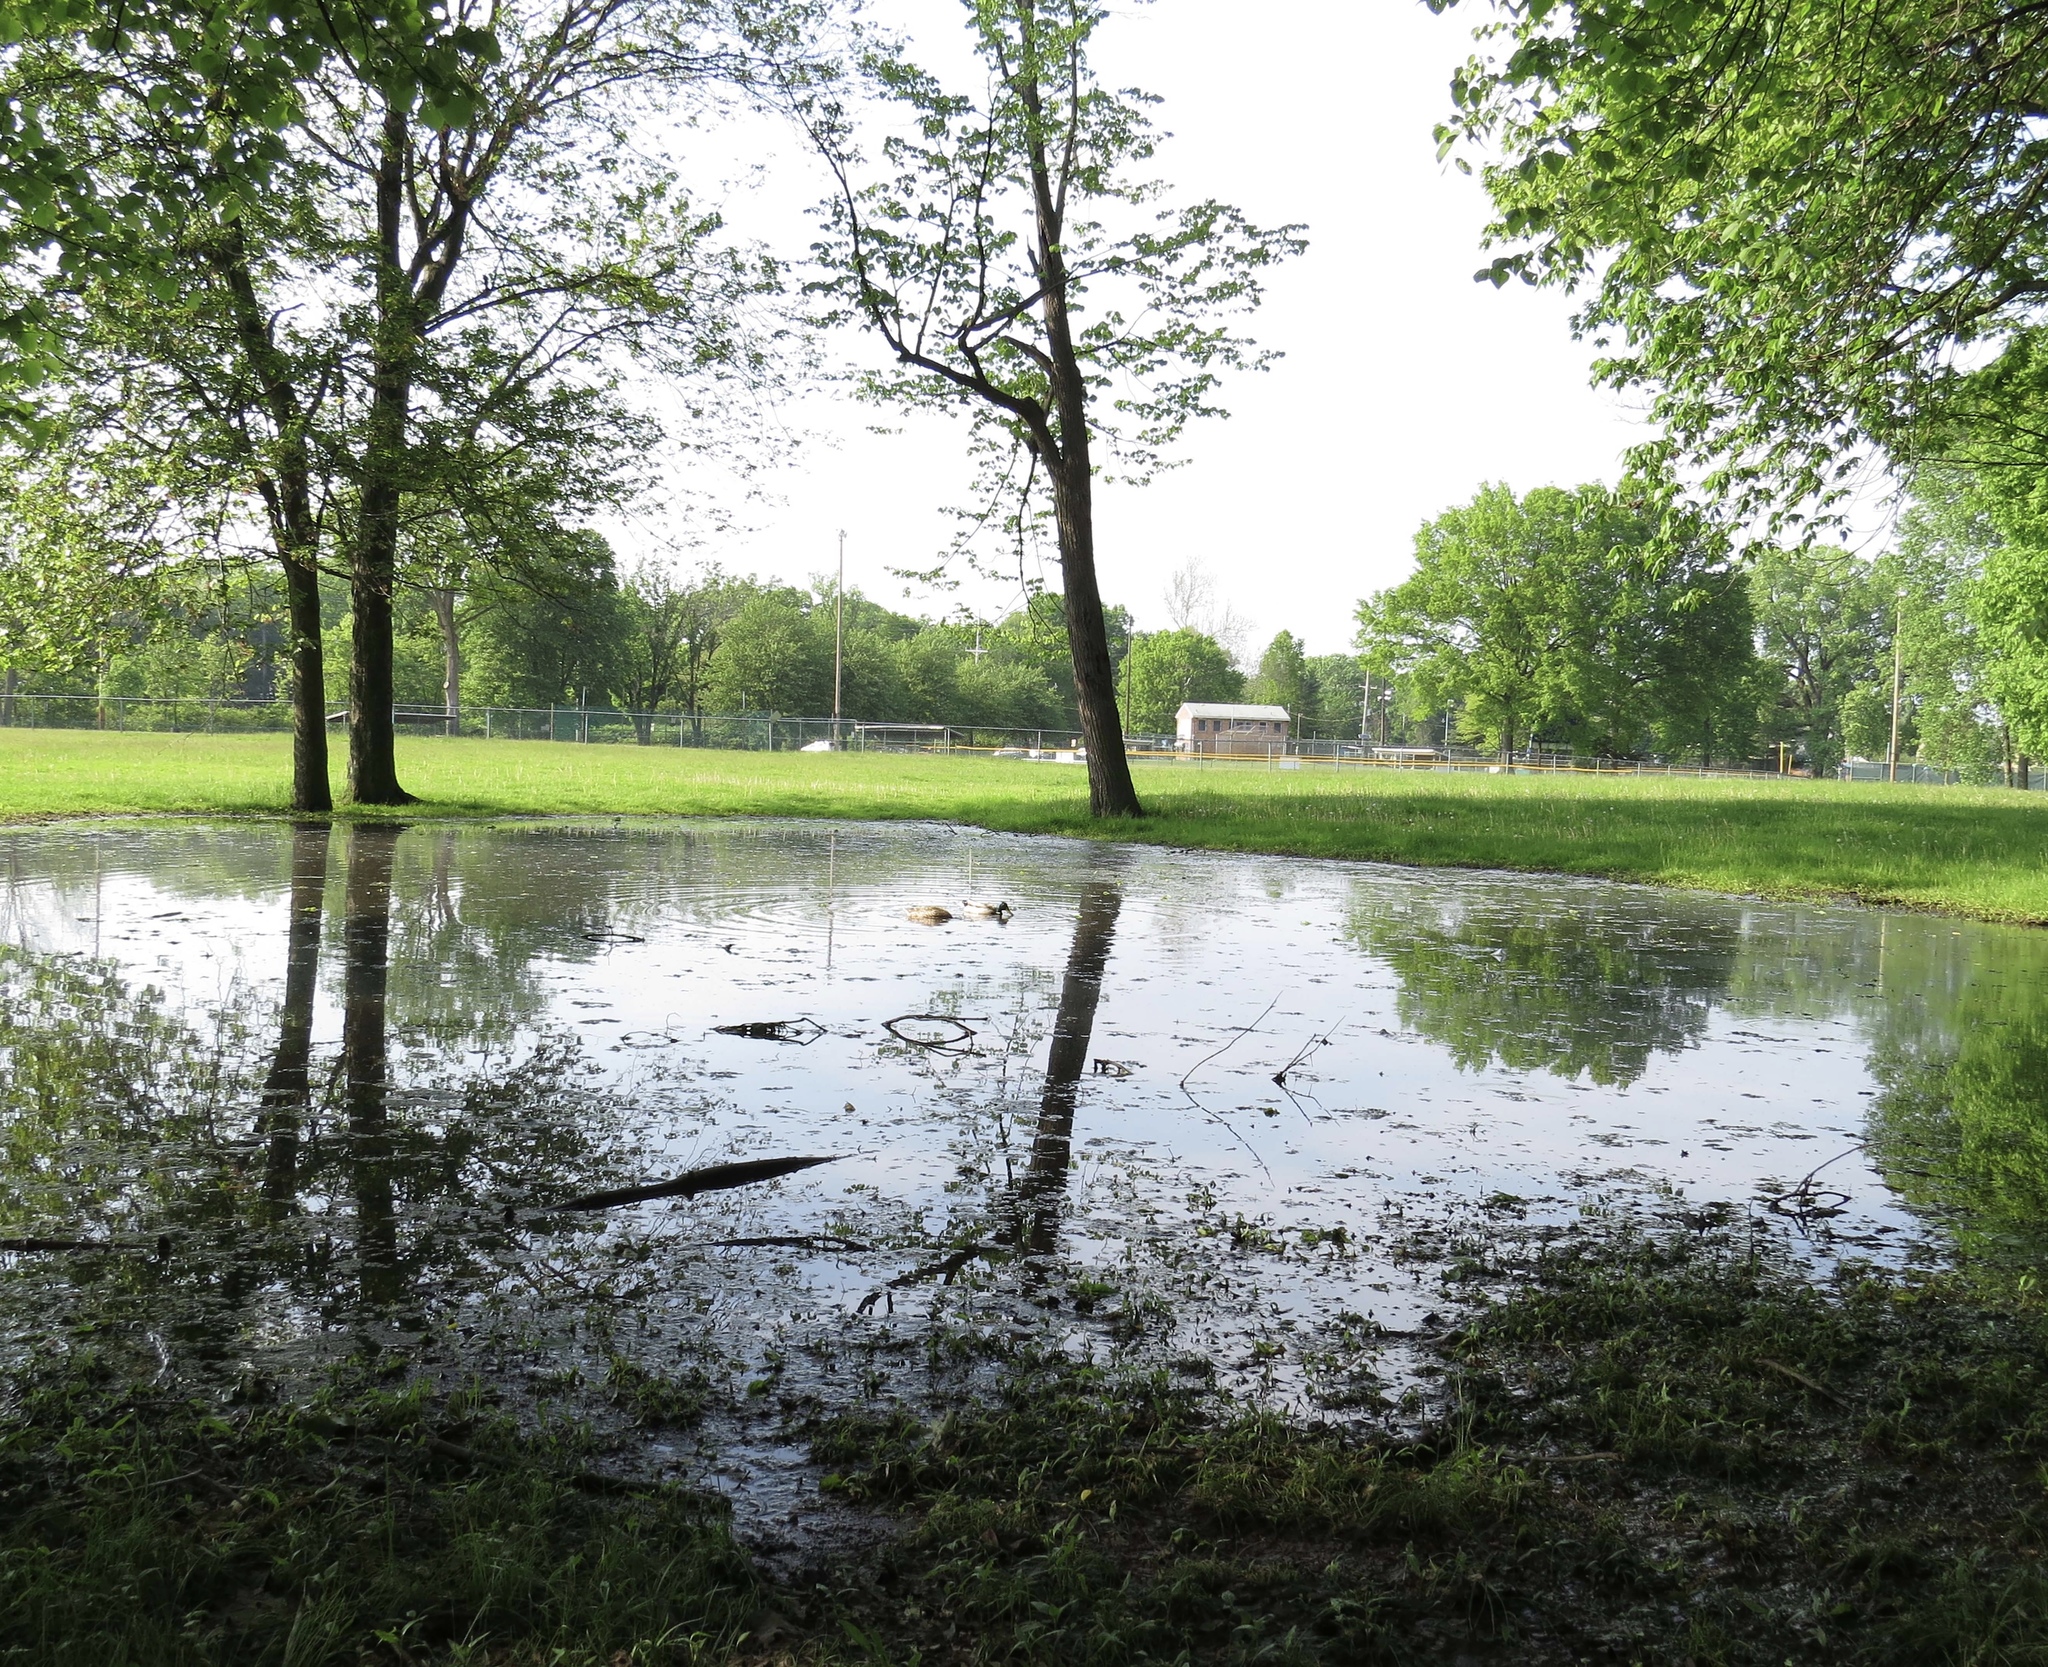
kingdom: Animalia
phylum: Chordata
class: Aves
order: Anseriformes
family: Anatidae
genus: Anas
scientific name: Anas platyrhynchos
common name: Mallard
